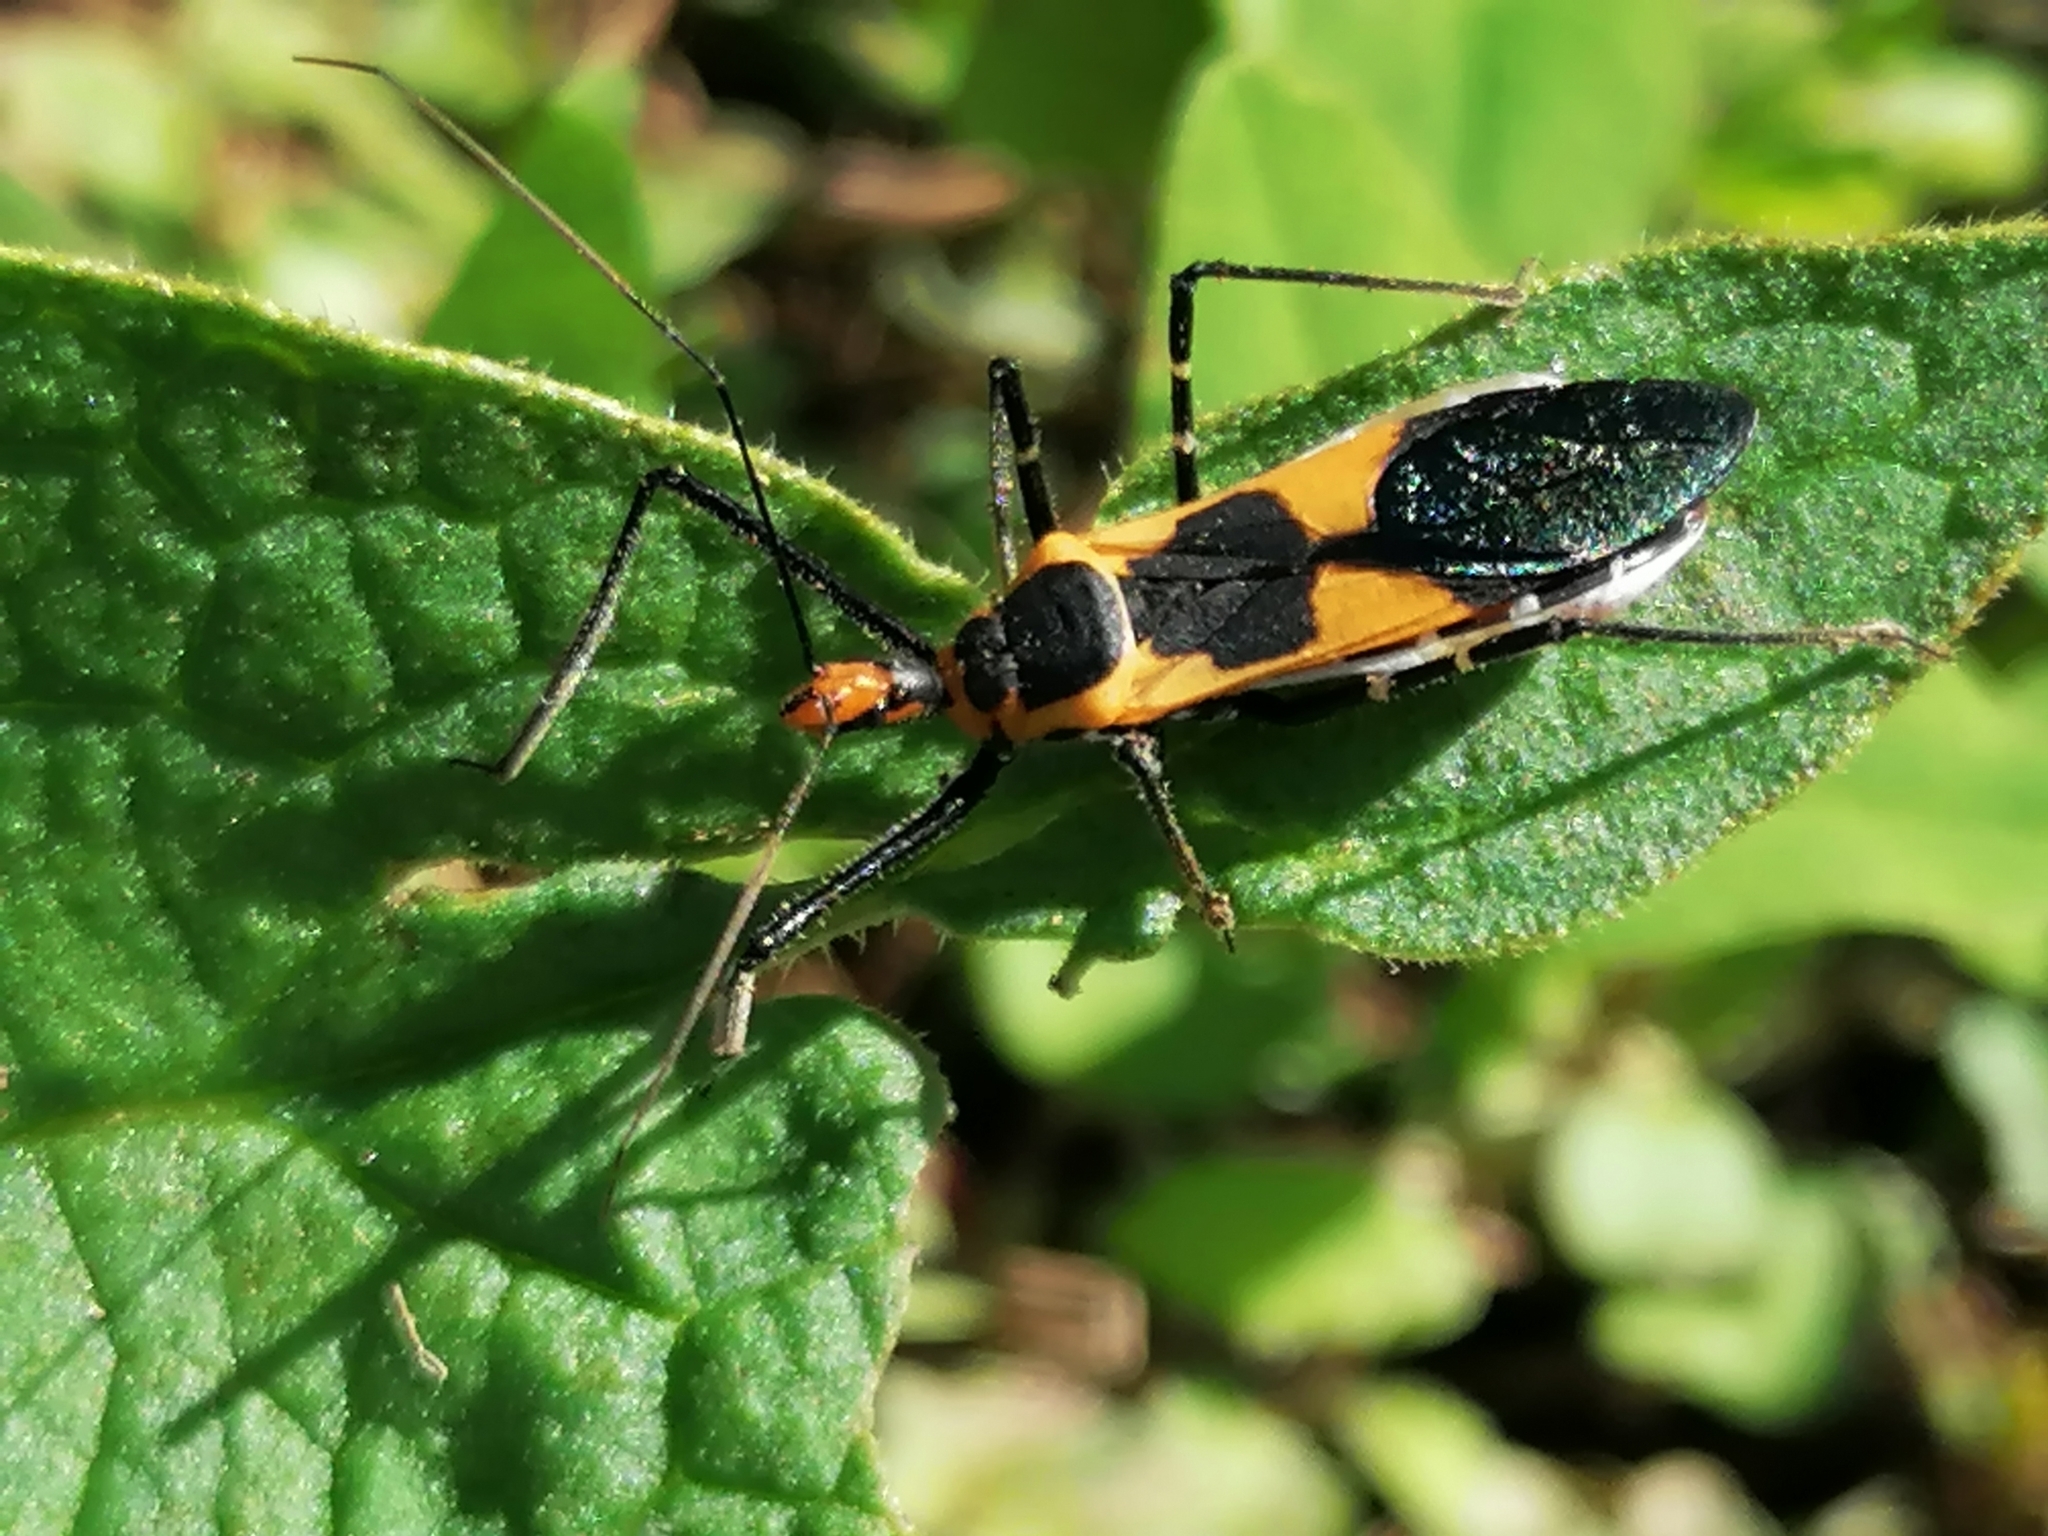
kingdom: Animalia
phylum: Arthropoda
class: Insecta
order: Hemiptera
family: Reduviidae
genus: Zelus
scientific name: Zelus longipes
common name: Milkweed assassin bug
